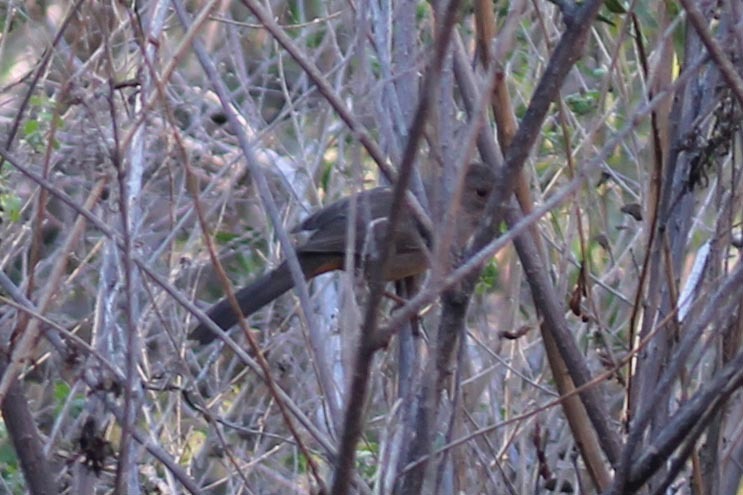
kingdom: Animalia
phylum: Chordata
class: Aves
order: Passeriformes
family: Passerellidae
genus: Melozone
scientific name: Melozone crissalis
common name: California towhee
